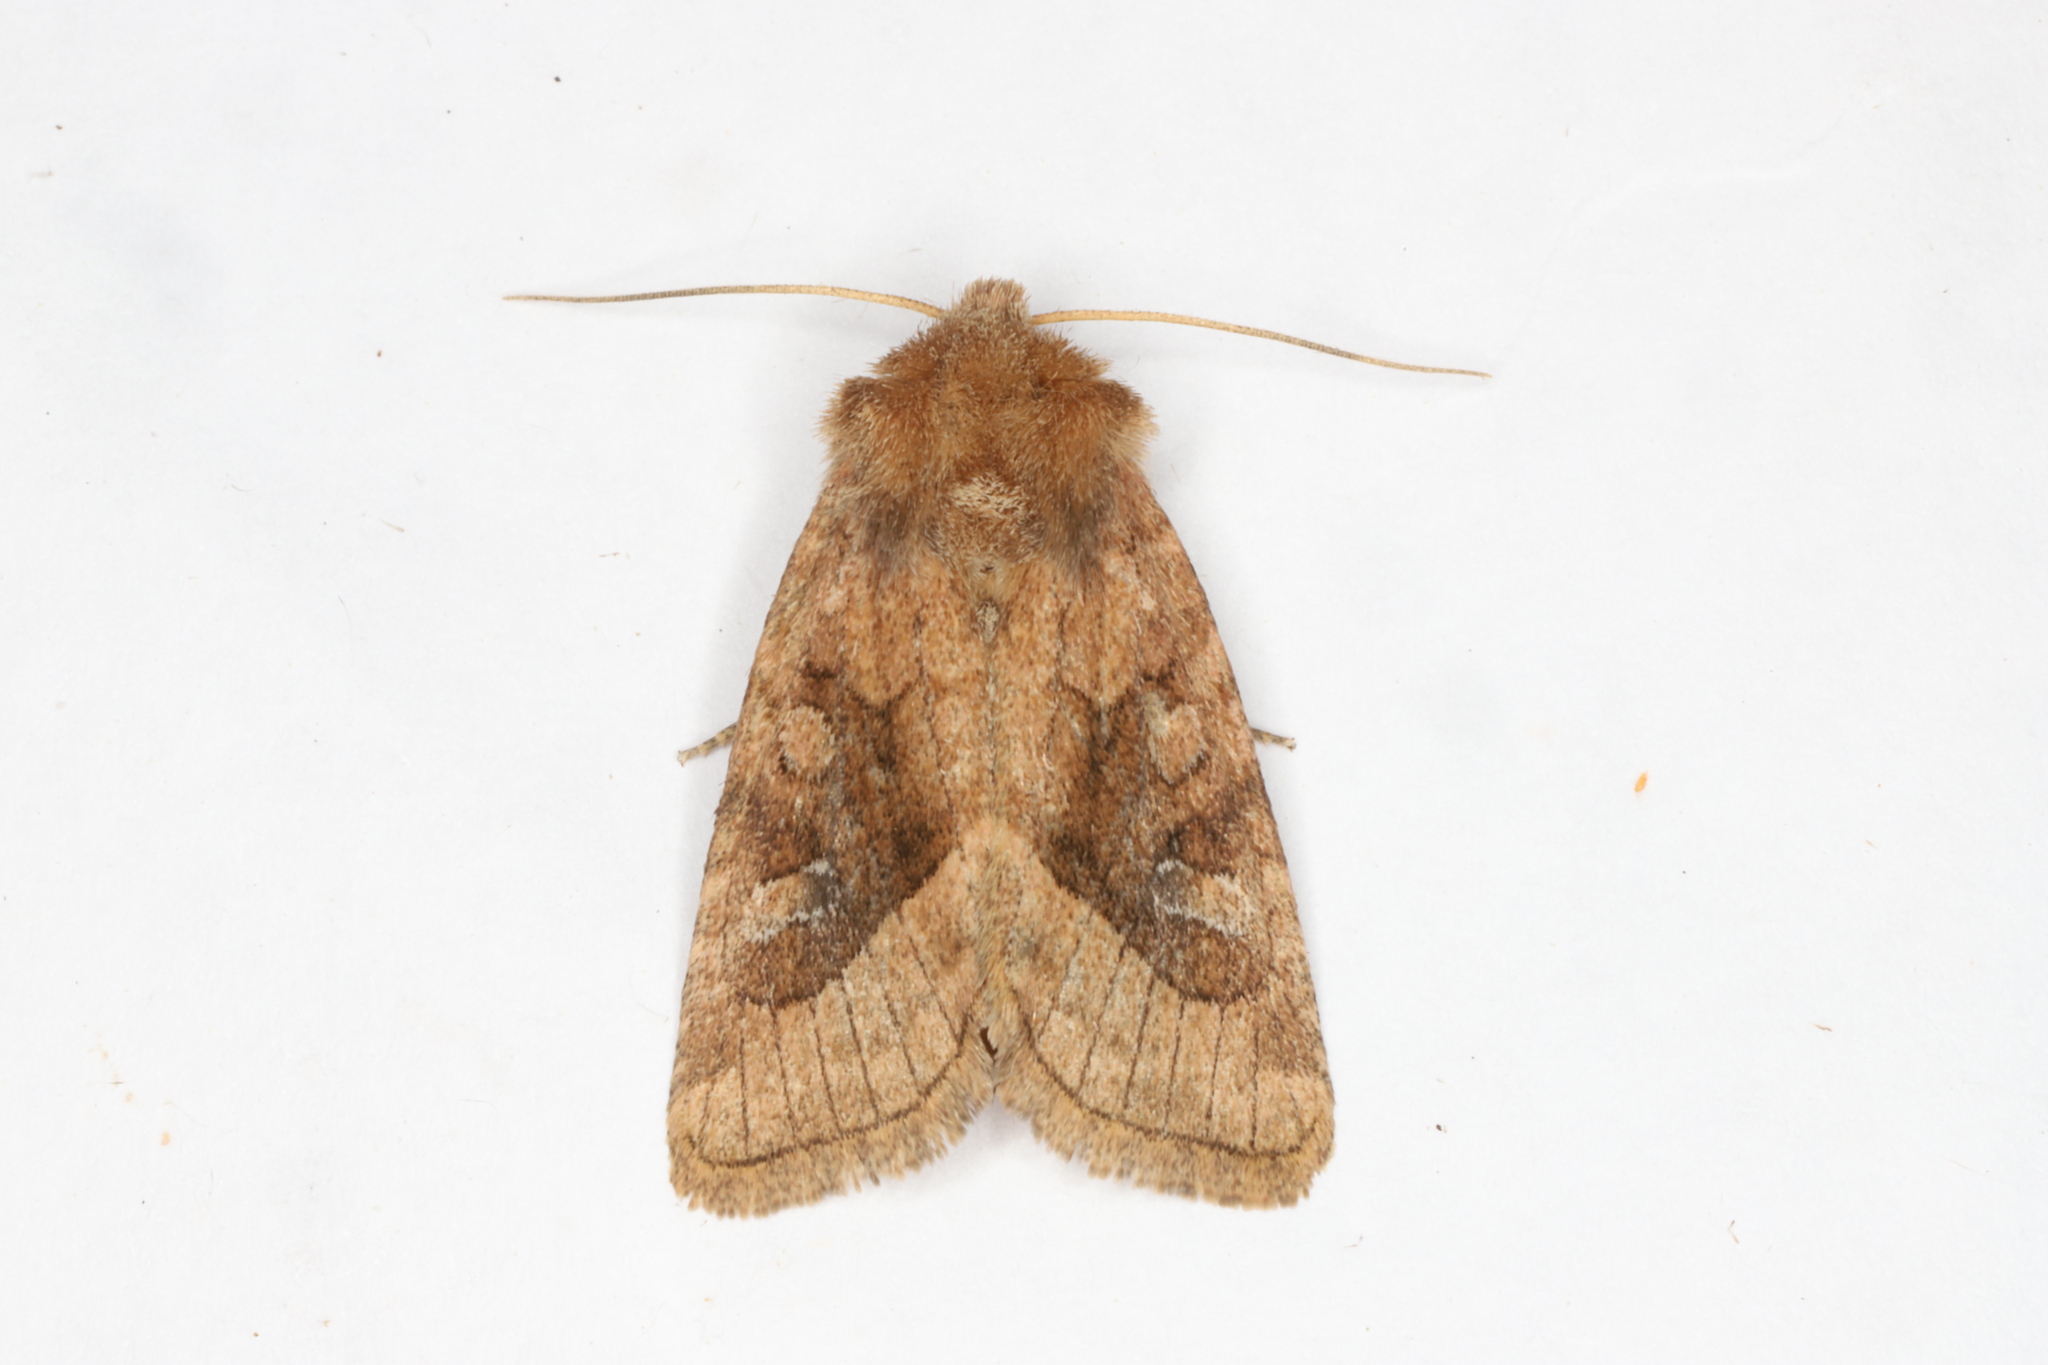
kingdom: Animalia
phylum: Arthropoda
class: Insecta
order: Lepidoptera
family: Noctuidae
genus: Lacinipolia
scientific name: Lacinipolia lorea
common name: Bridled arches moth
